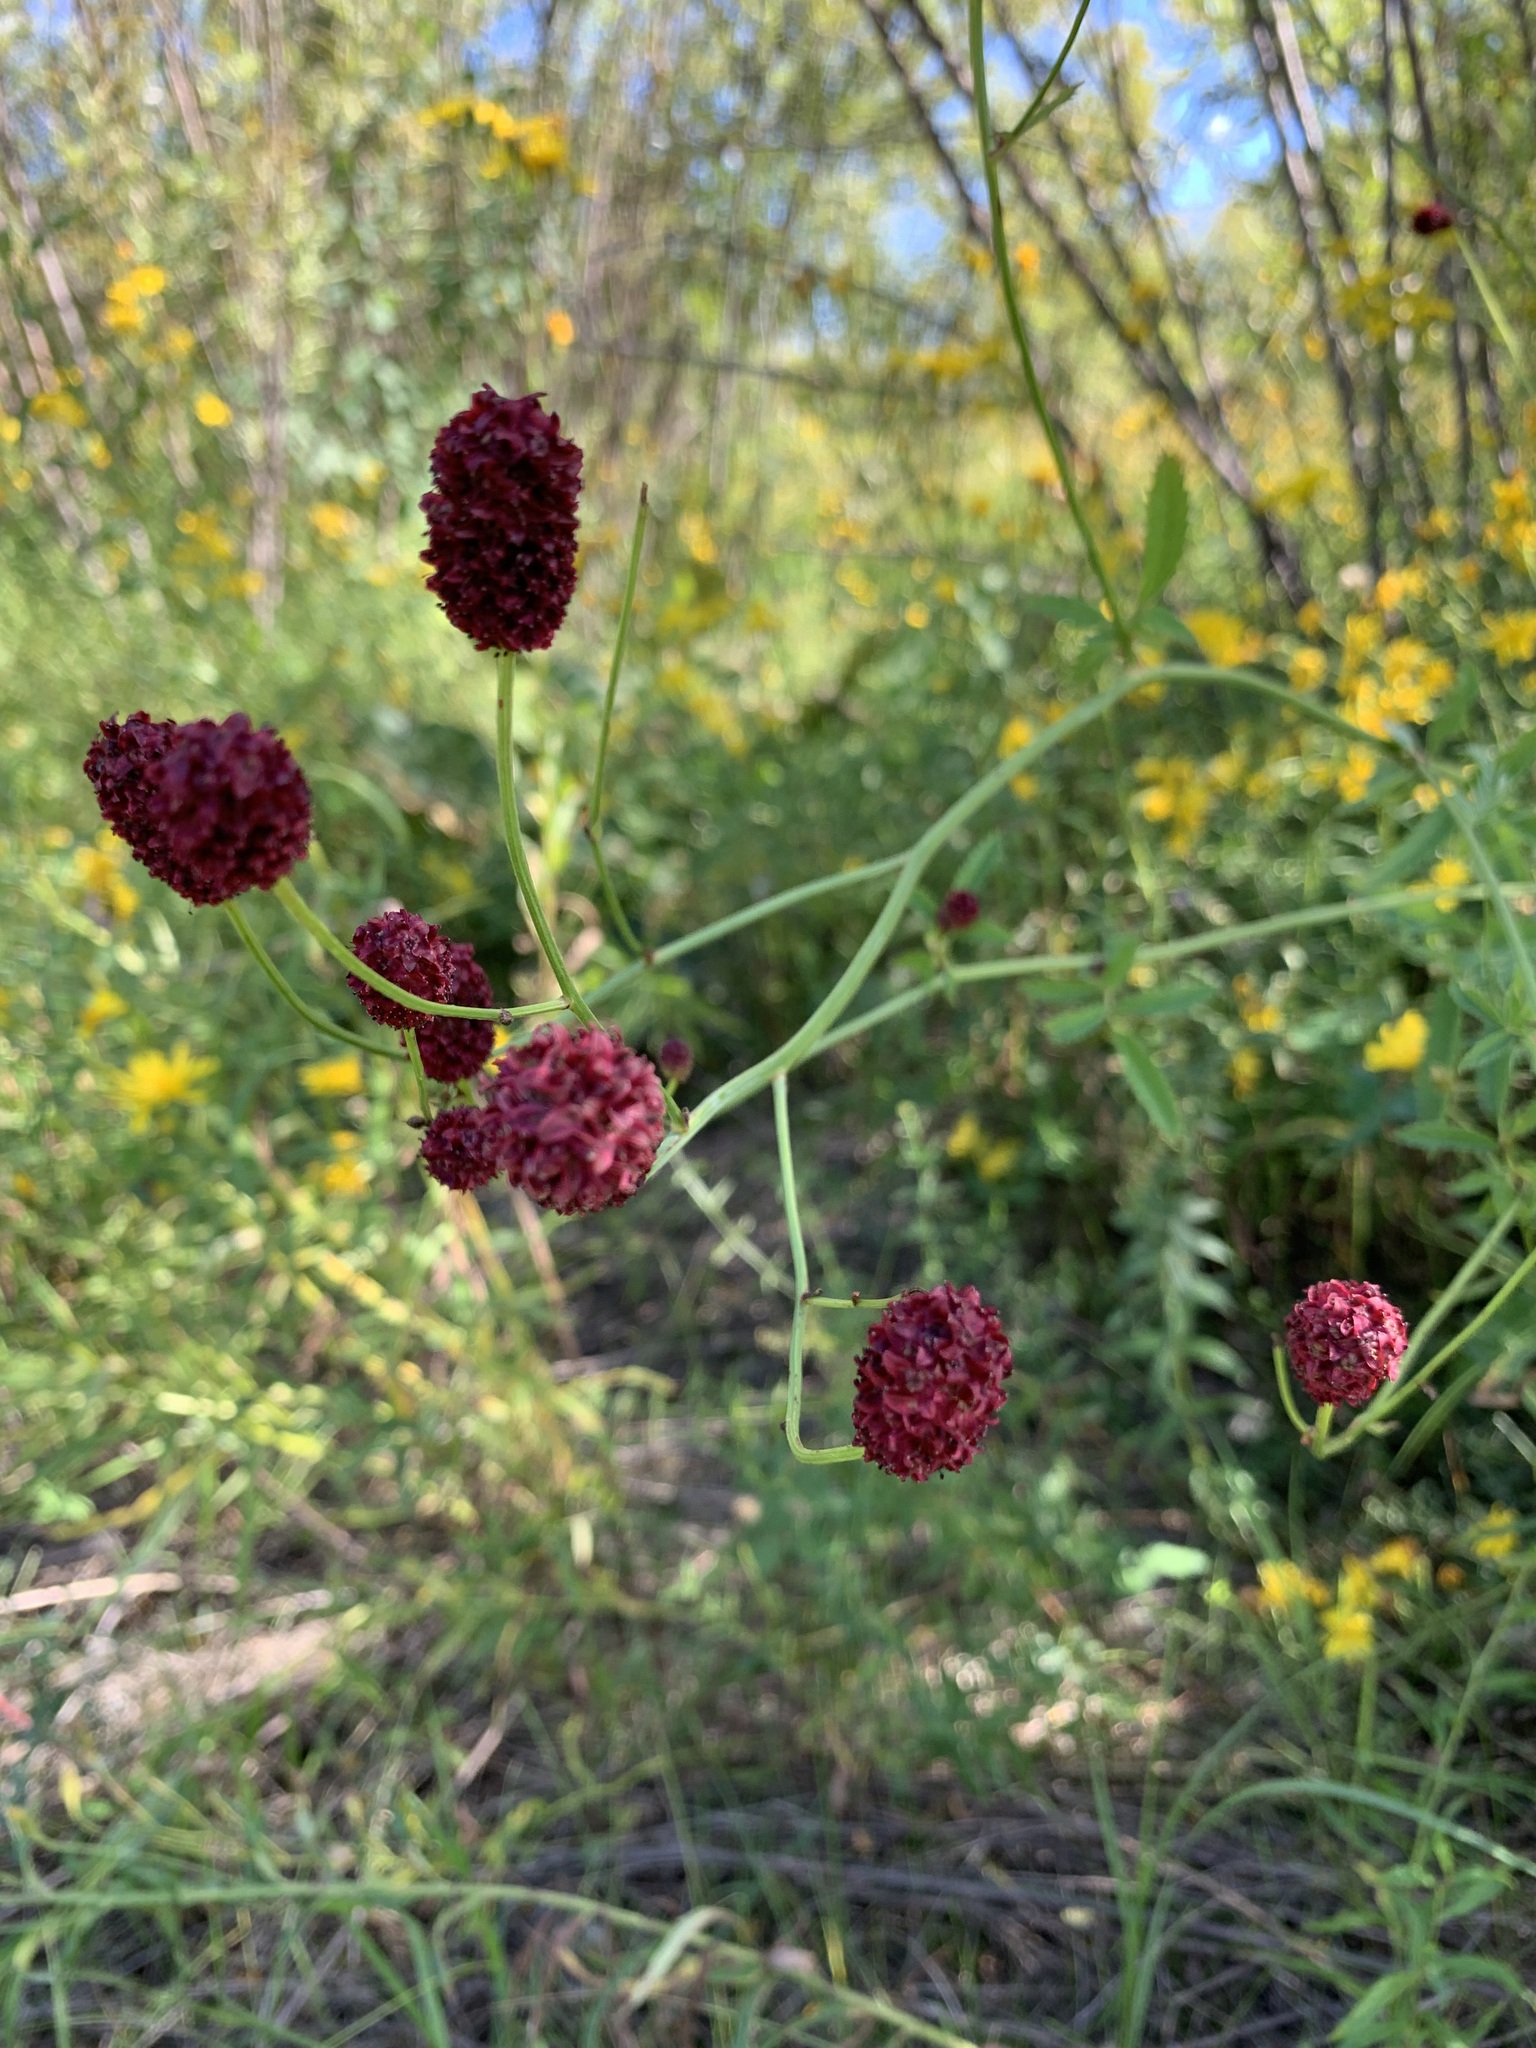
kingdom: Plantae
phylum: Tracheophyta
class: Magnoliopsida
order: Rosales
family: Rosaceae
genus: Sanguisorba
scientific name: Sanguisorba officinalis
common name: Great burnet
